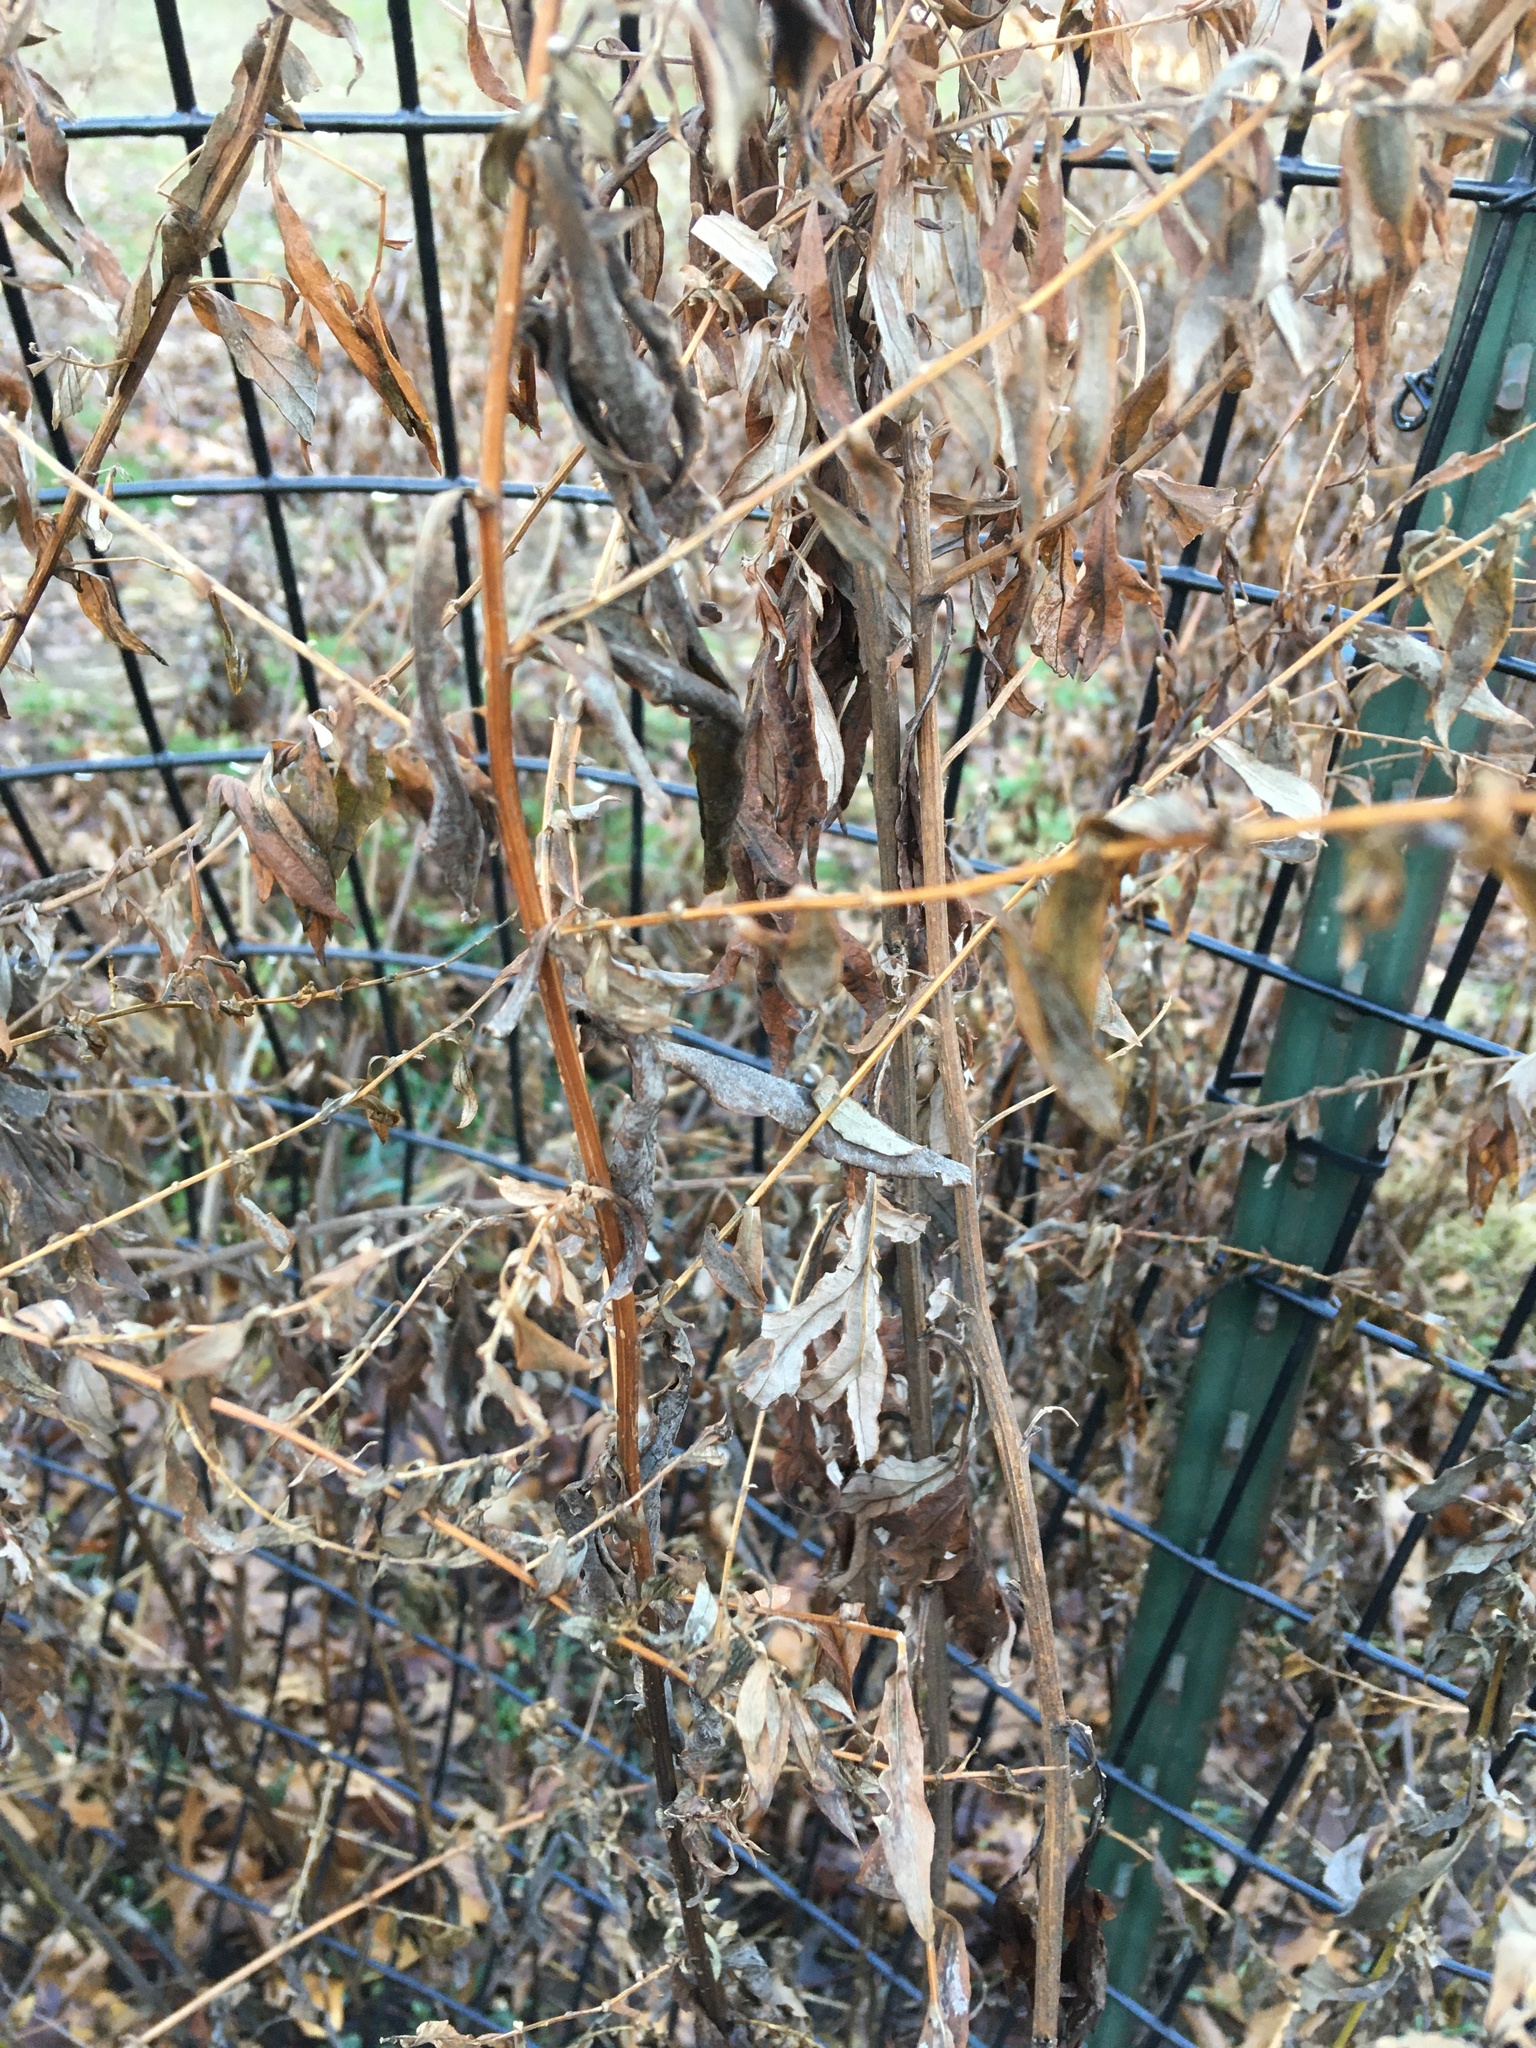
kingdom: Plantae
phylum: Tracheophyta
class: Magnoliopsida
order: Caryophyllales
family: Phytolaccaceae
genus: Phytolacca
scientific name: Phytolacca americana
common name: American pokeweed
